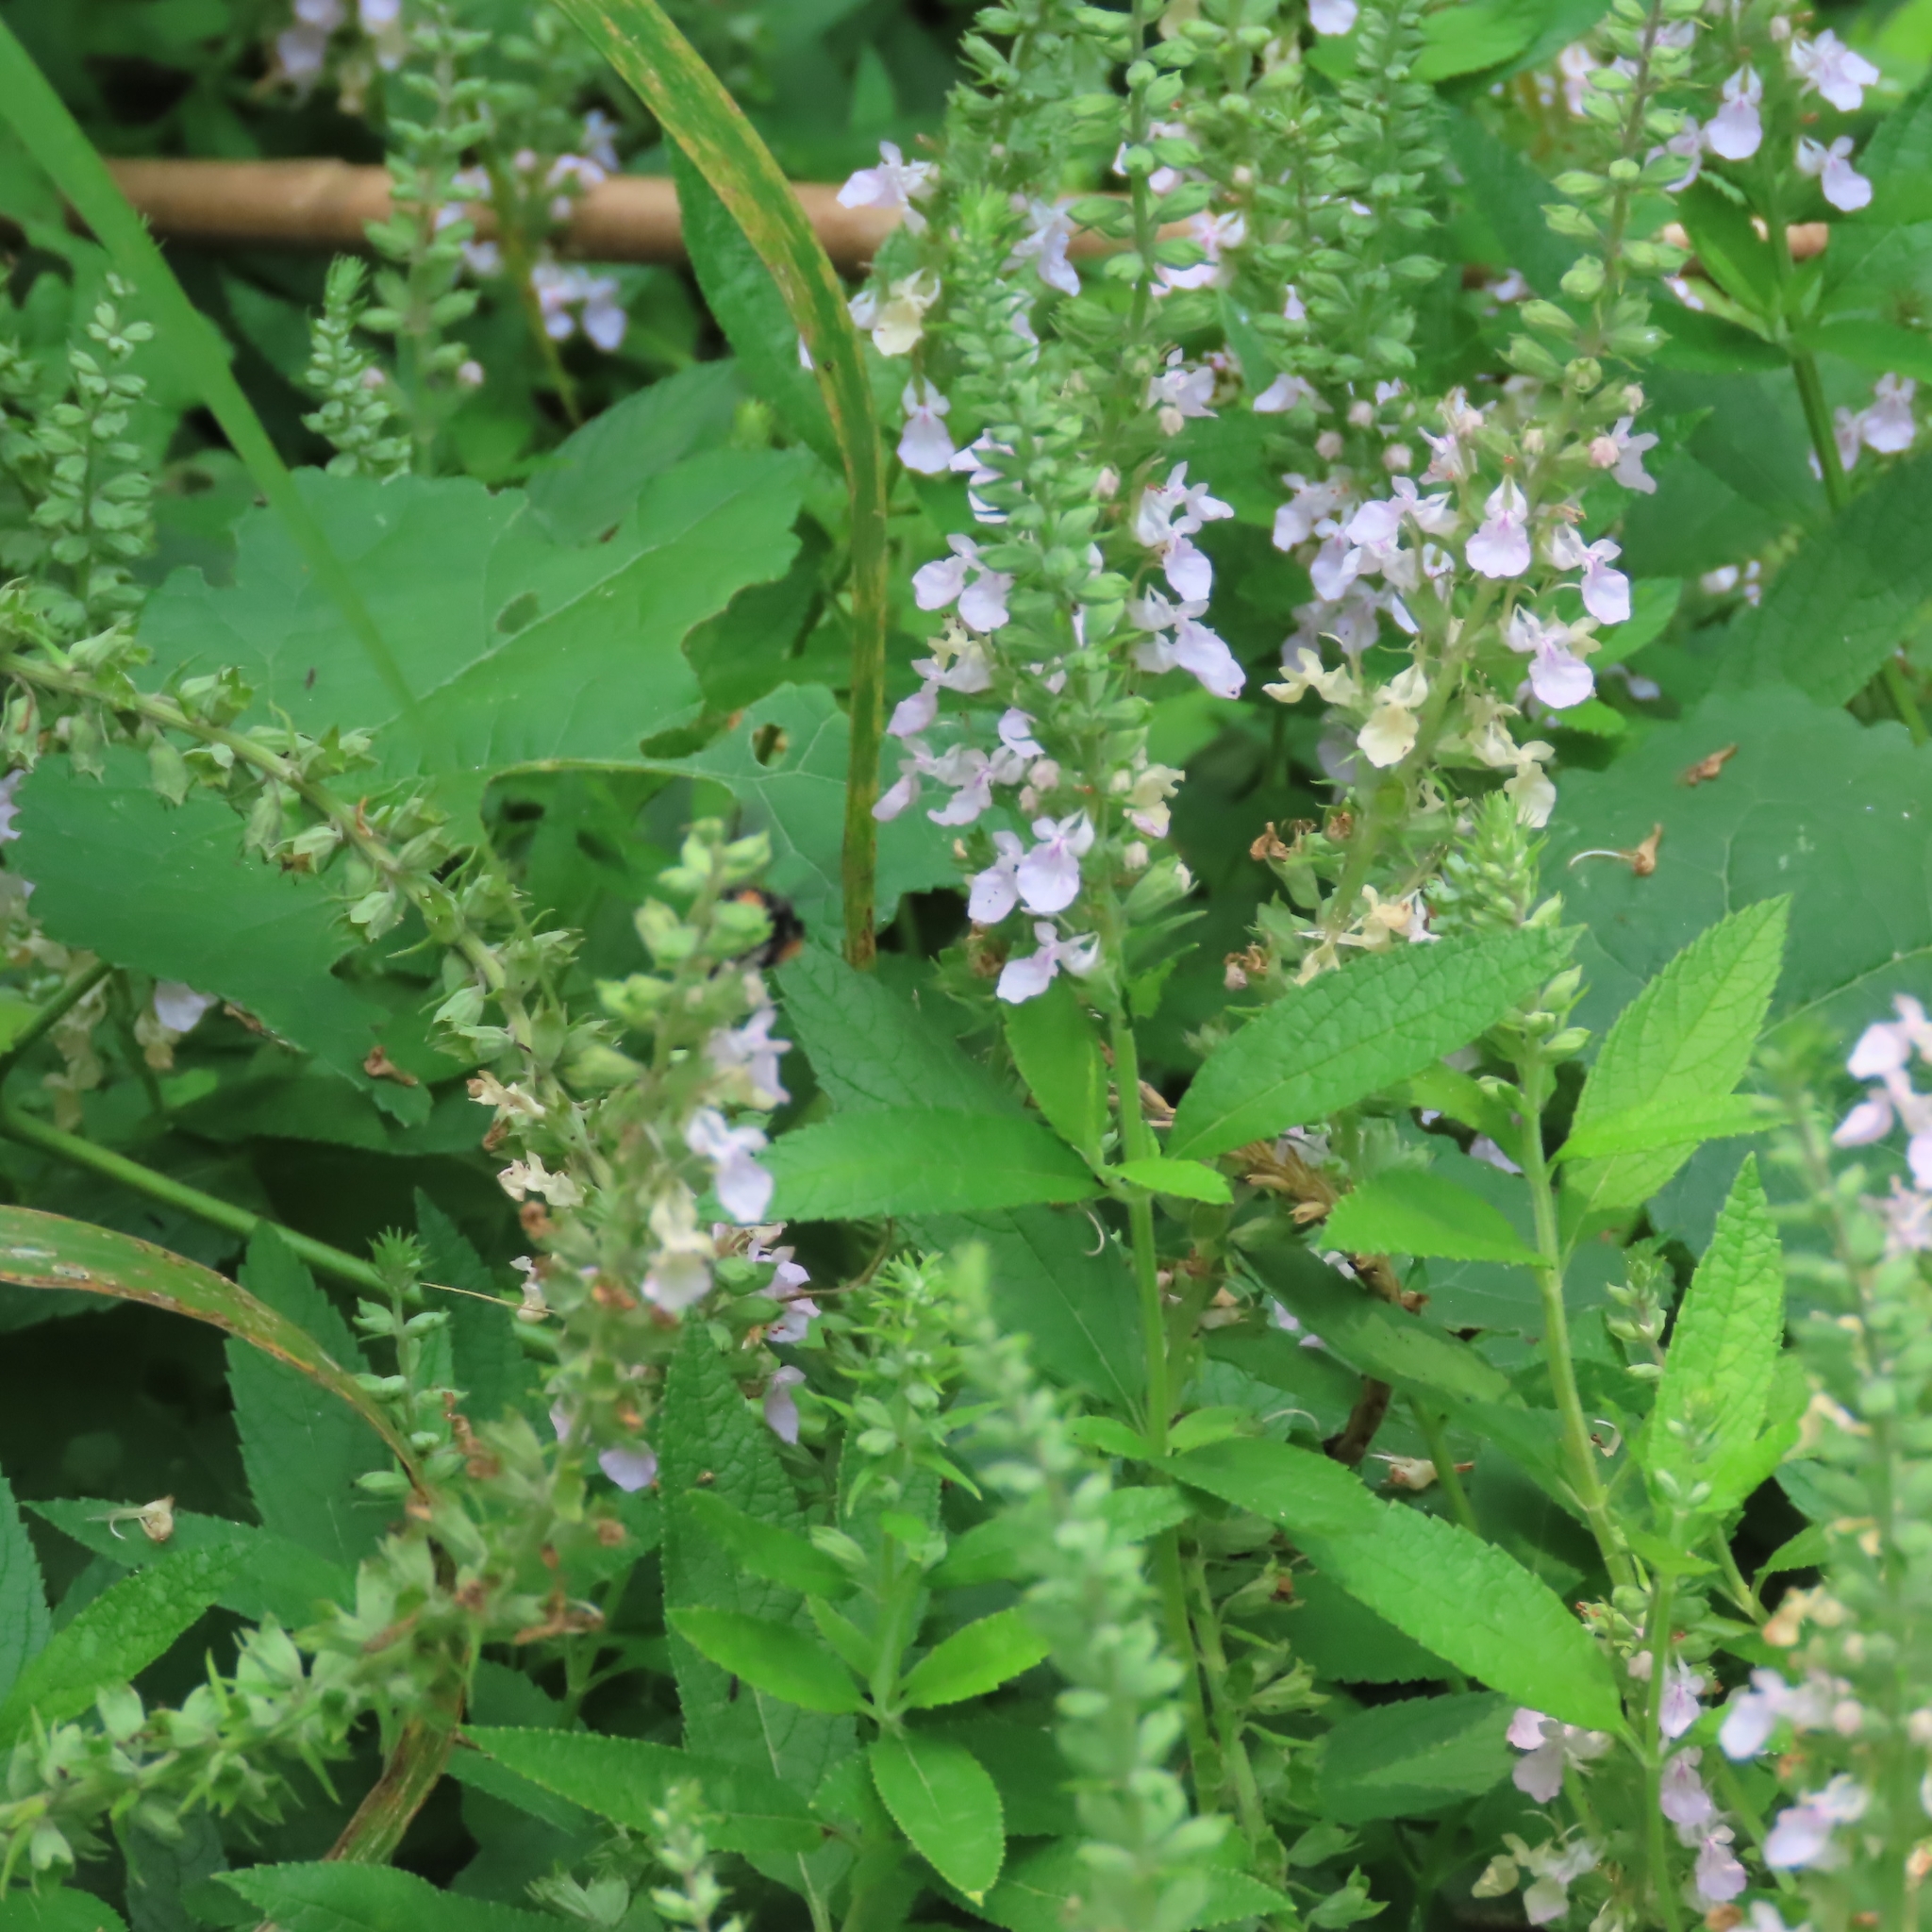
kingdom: Plantae
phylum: Tracheophyta
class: Magnoliopsida
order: Lamiales
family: Lamiaceae
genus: Teucrium
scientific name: Teucrium canadense
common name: American germander
